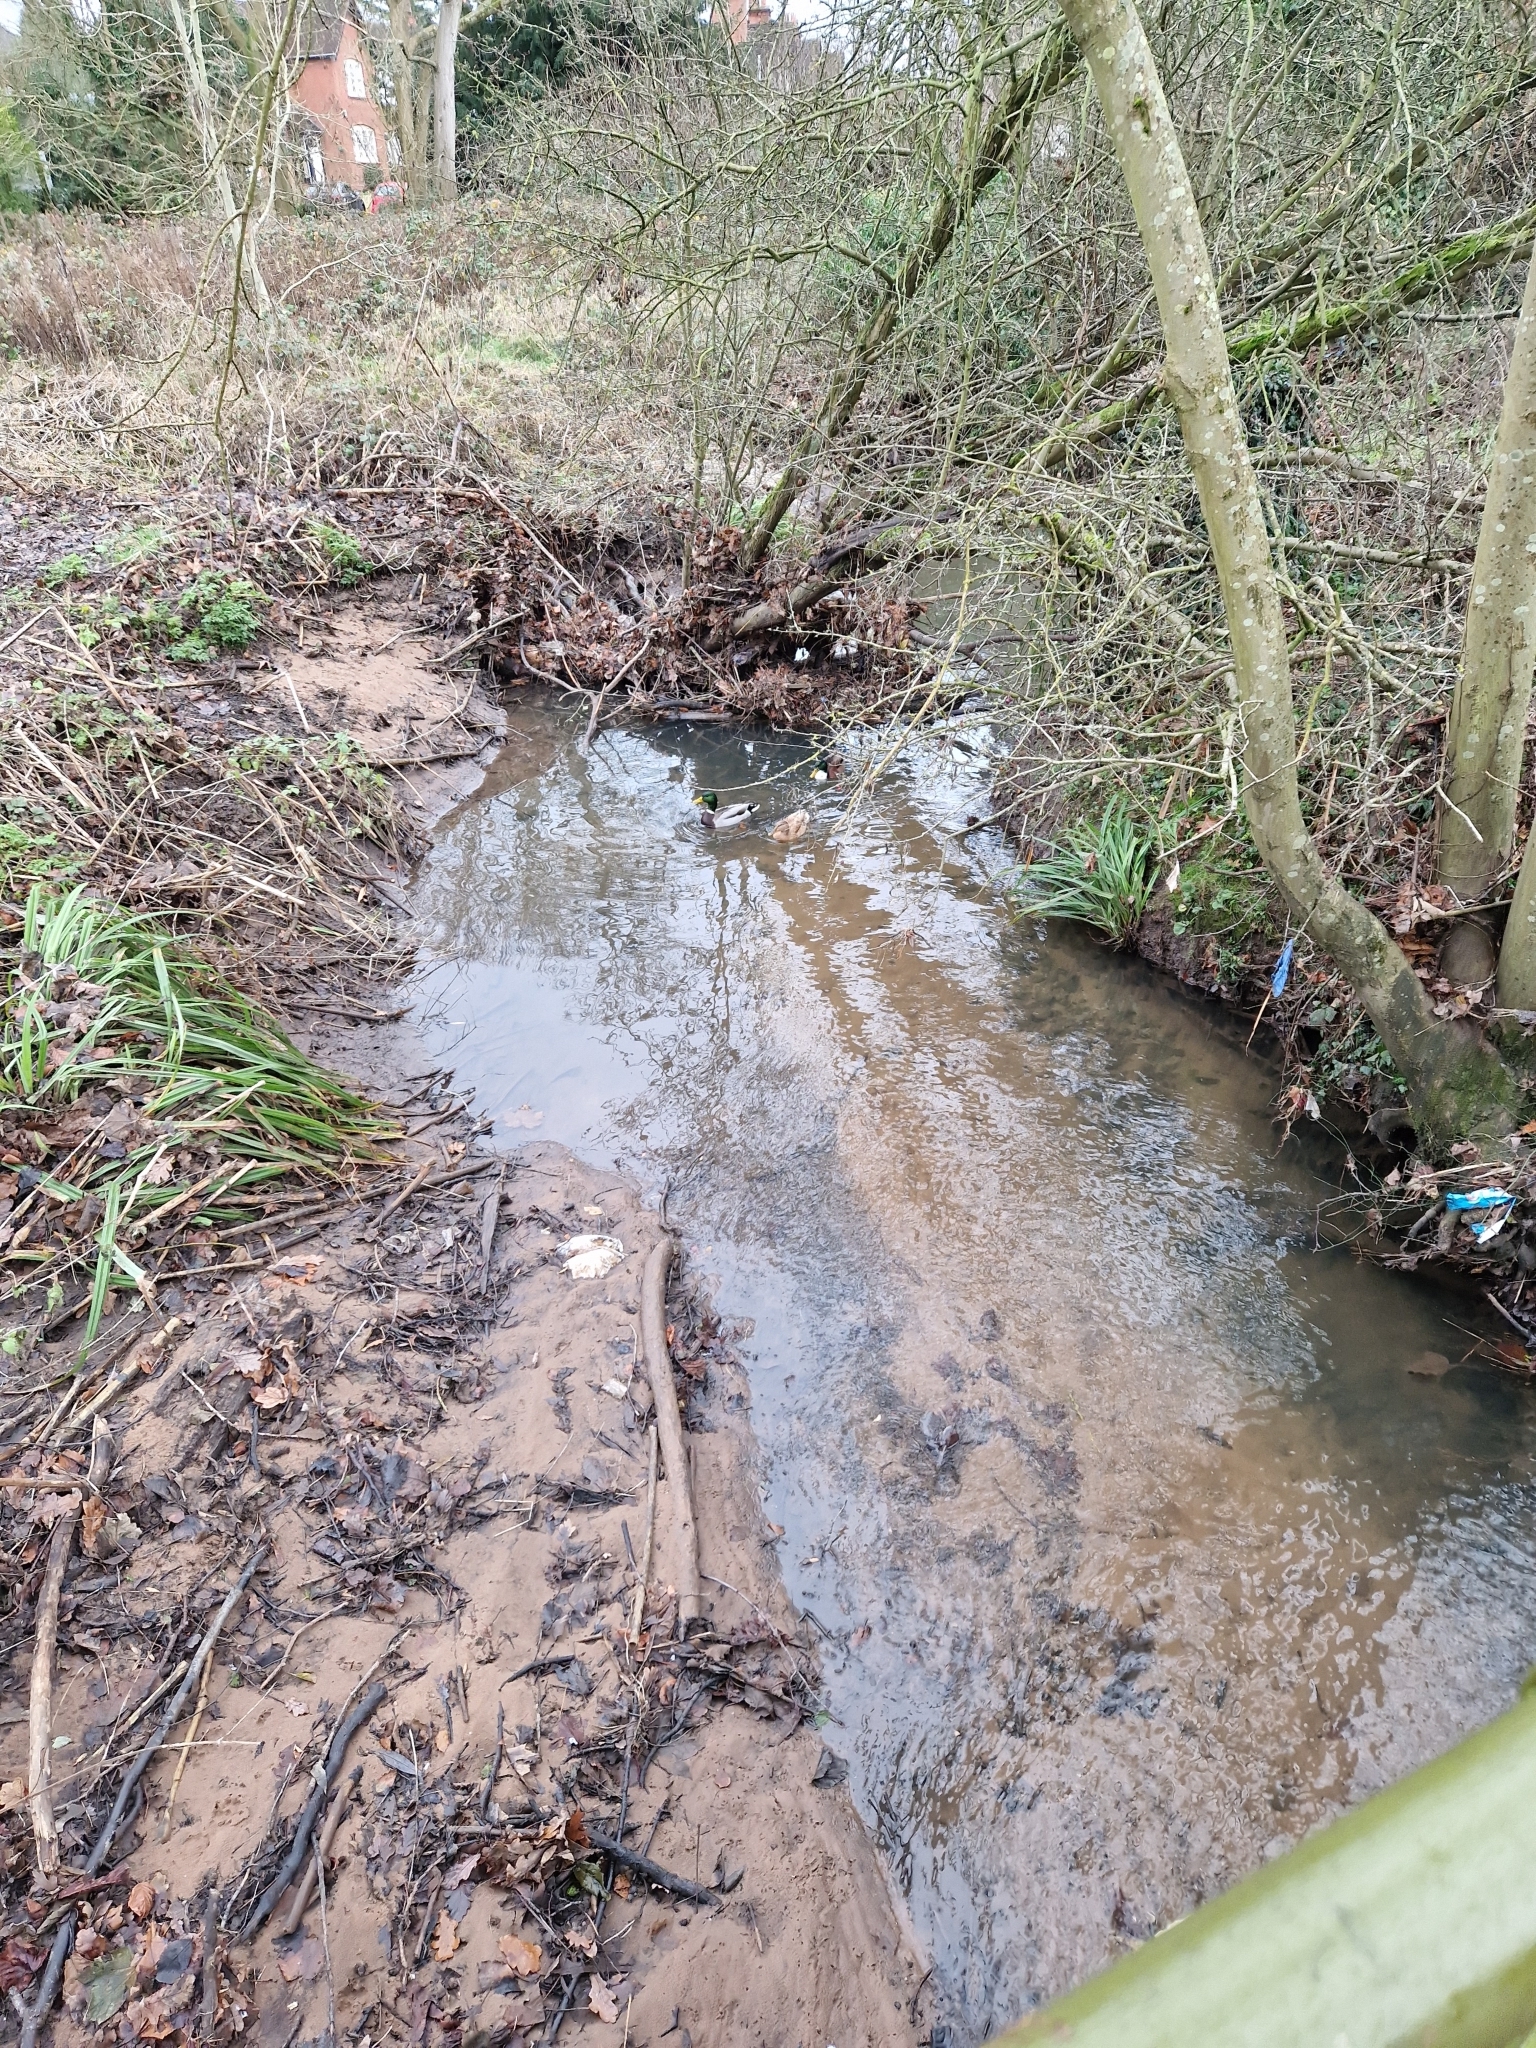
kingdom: Animalia
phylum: Chordata
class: Aves
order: Anseriformes
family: Anatidae
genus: Anas
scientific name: Anas platyrhynchos
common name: Mallard
